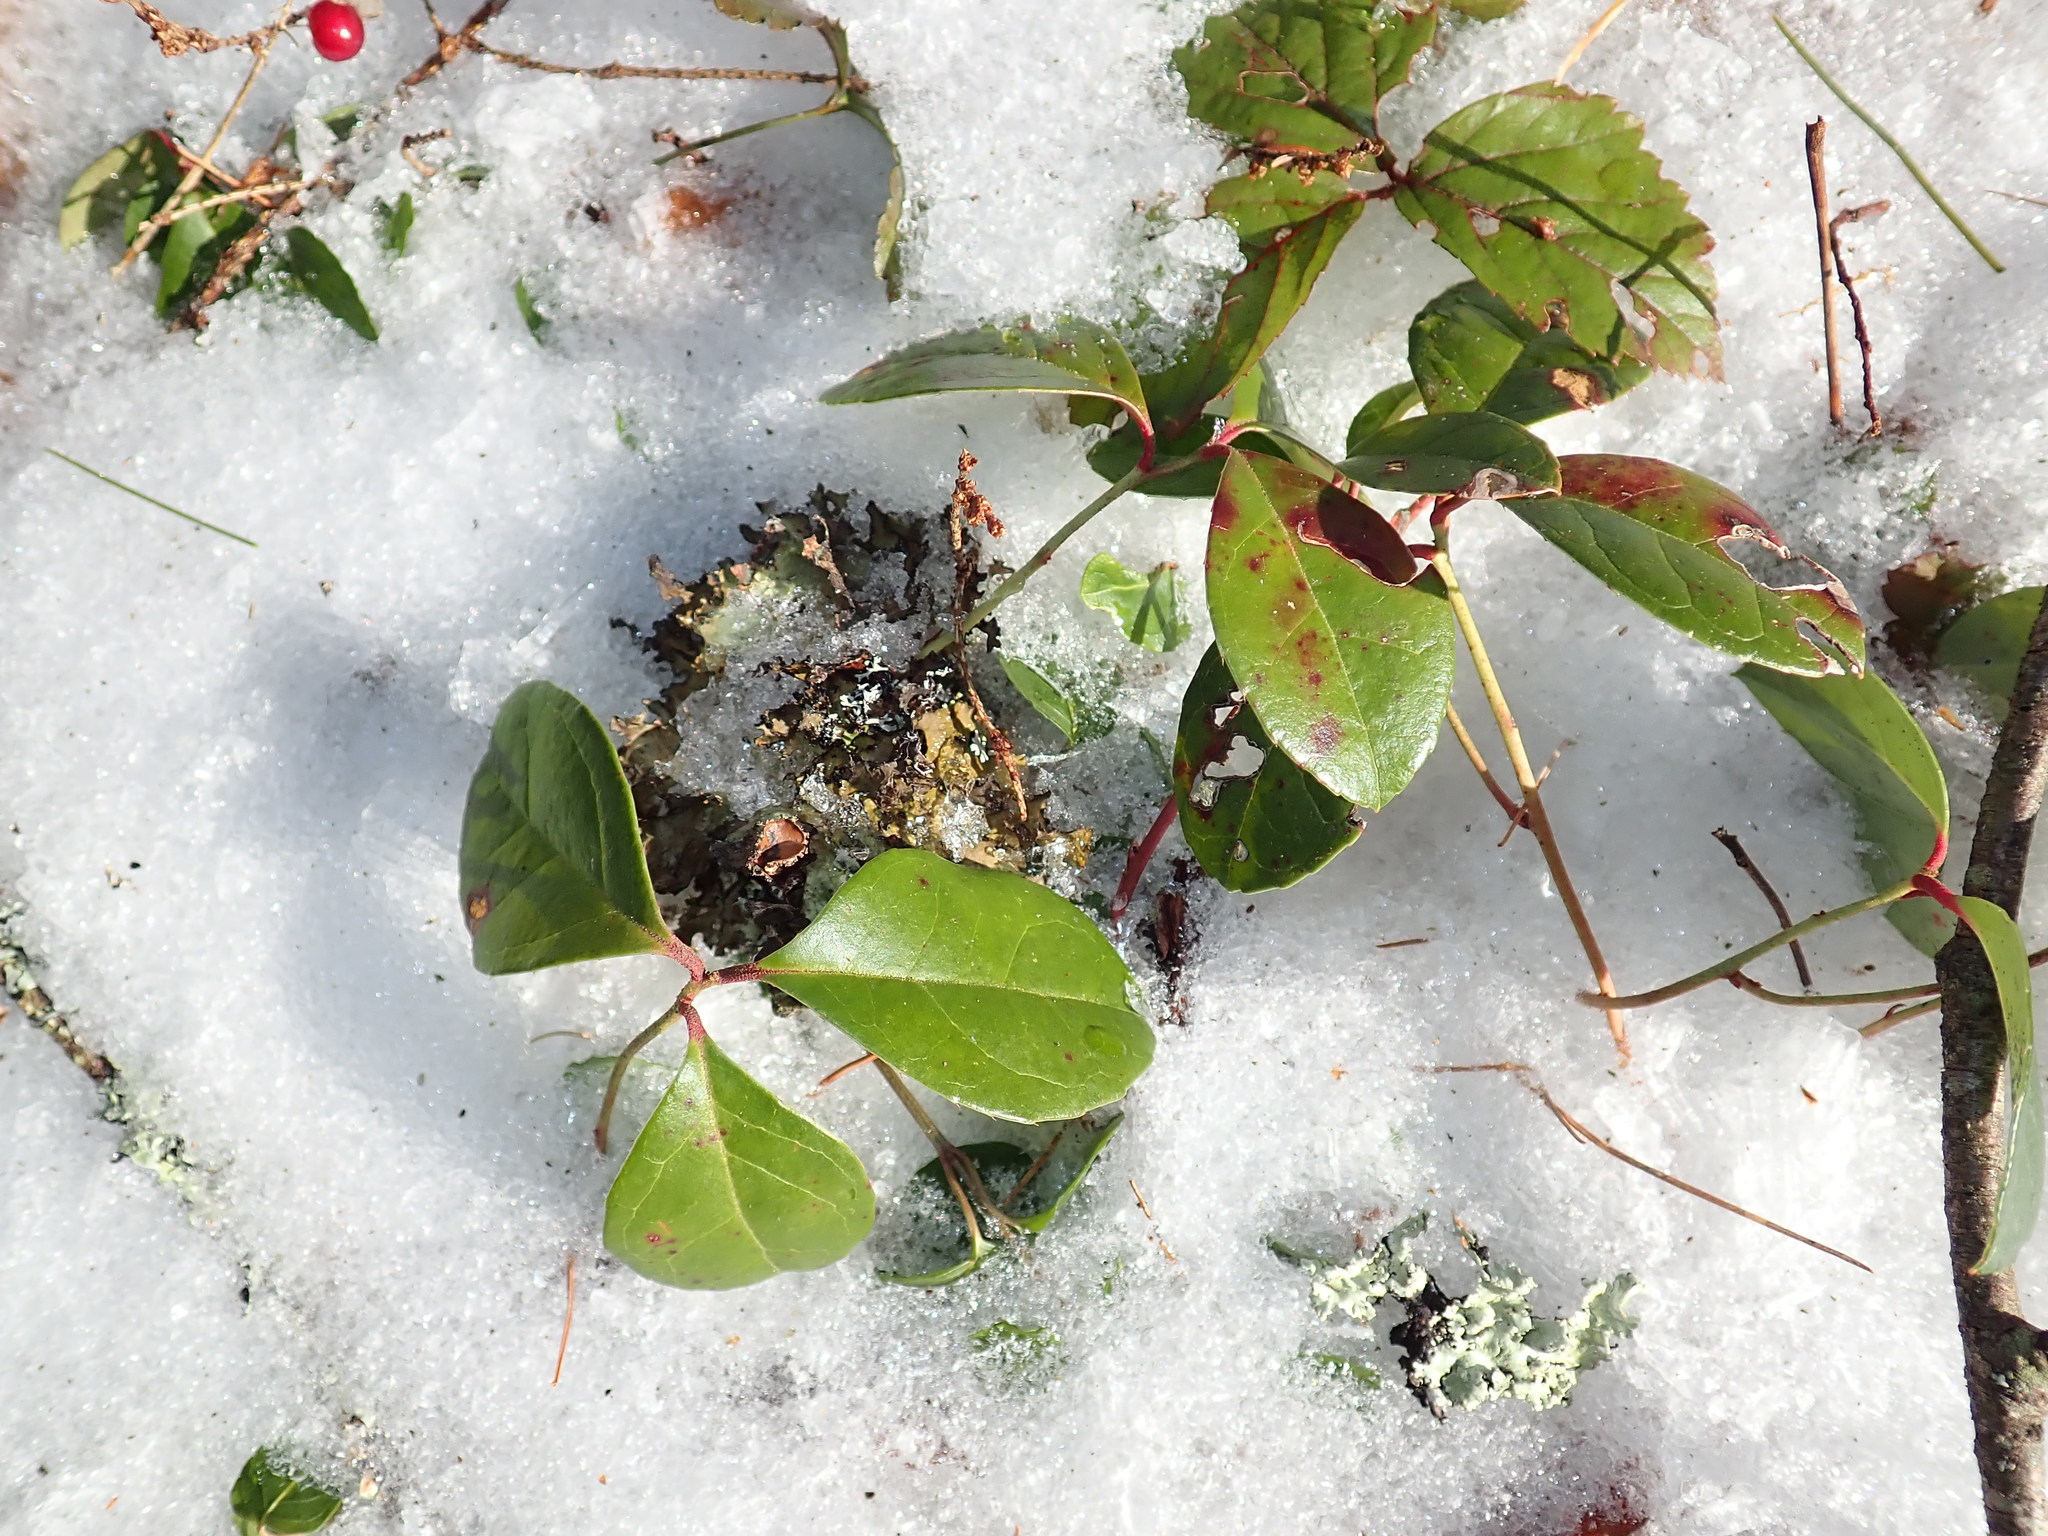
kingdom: Plantae
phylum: Tracheophyta
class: Magnoliopsida
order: Ericales
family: Ericaceae
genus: Gaultheria
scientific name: Gaultheria procumbens
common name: Checkerberry
